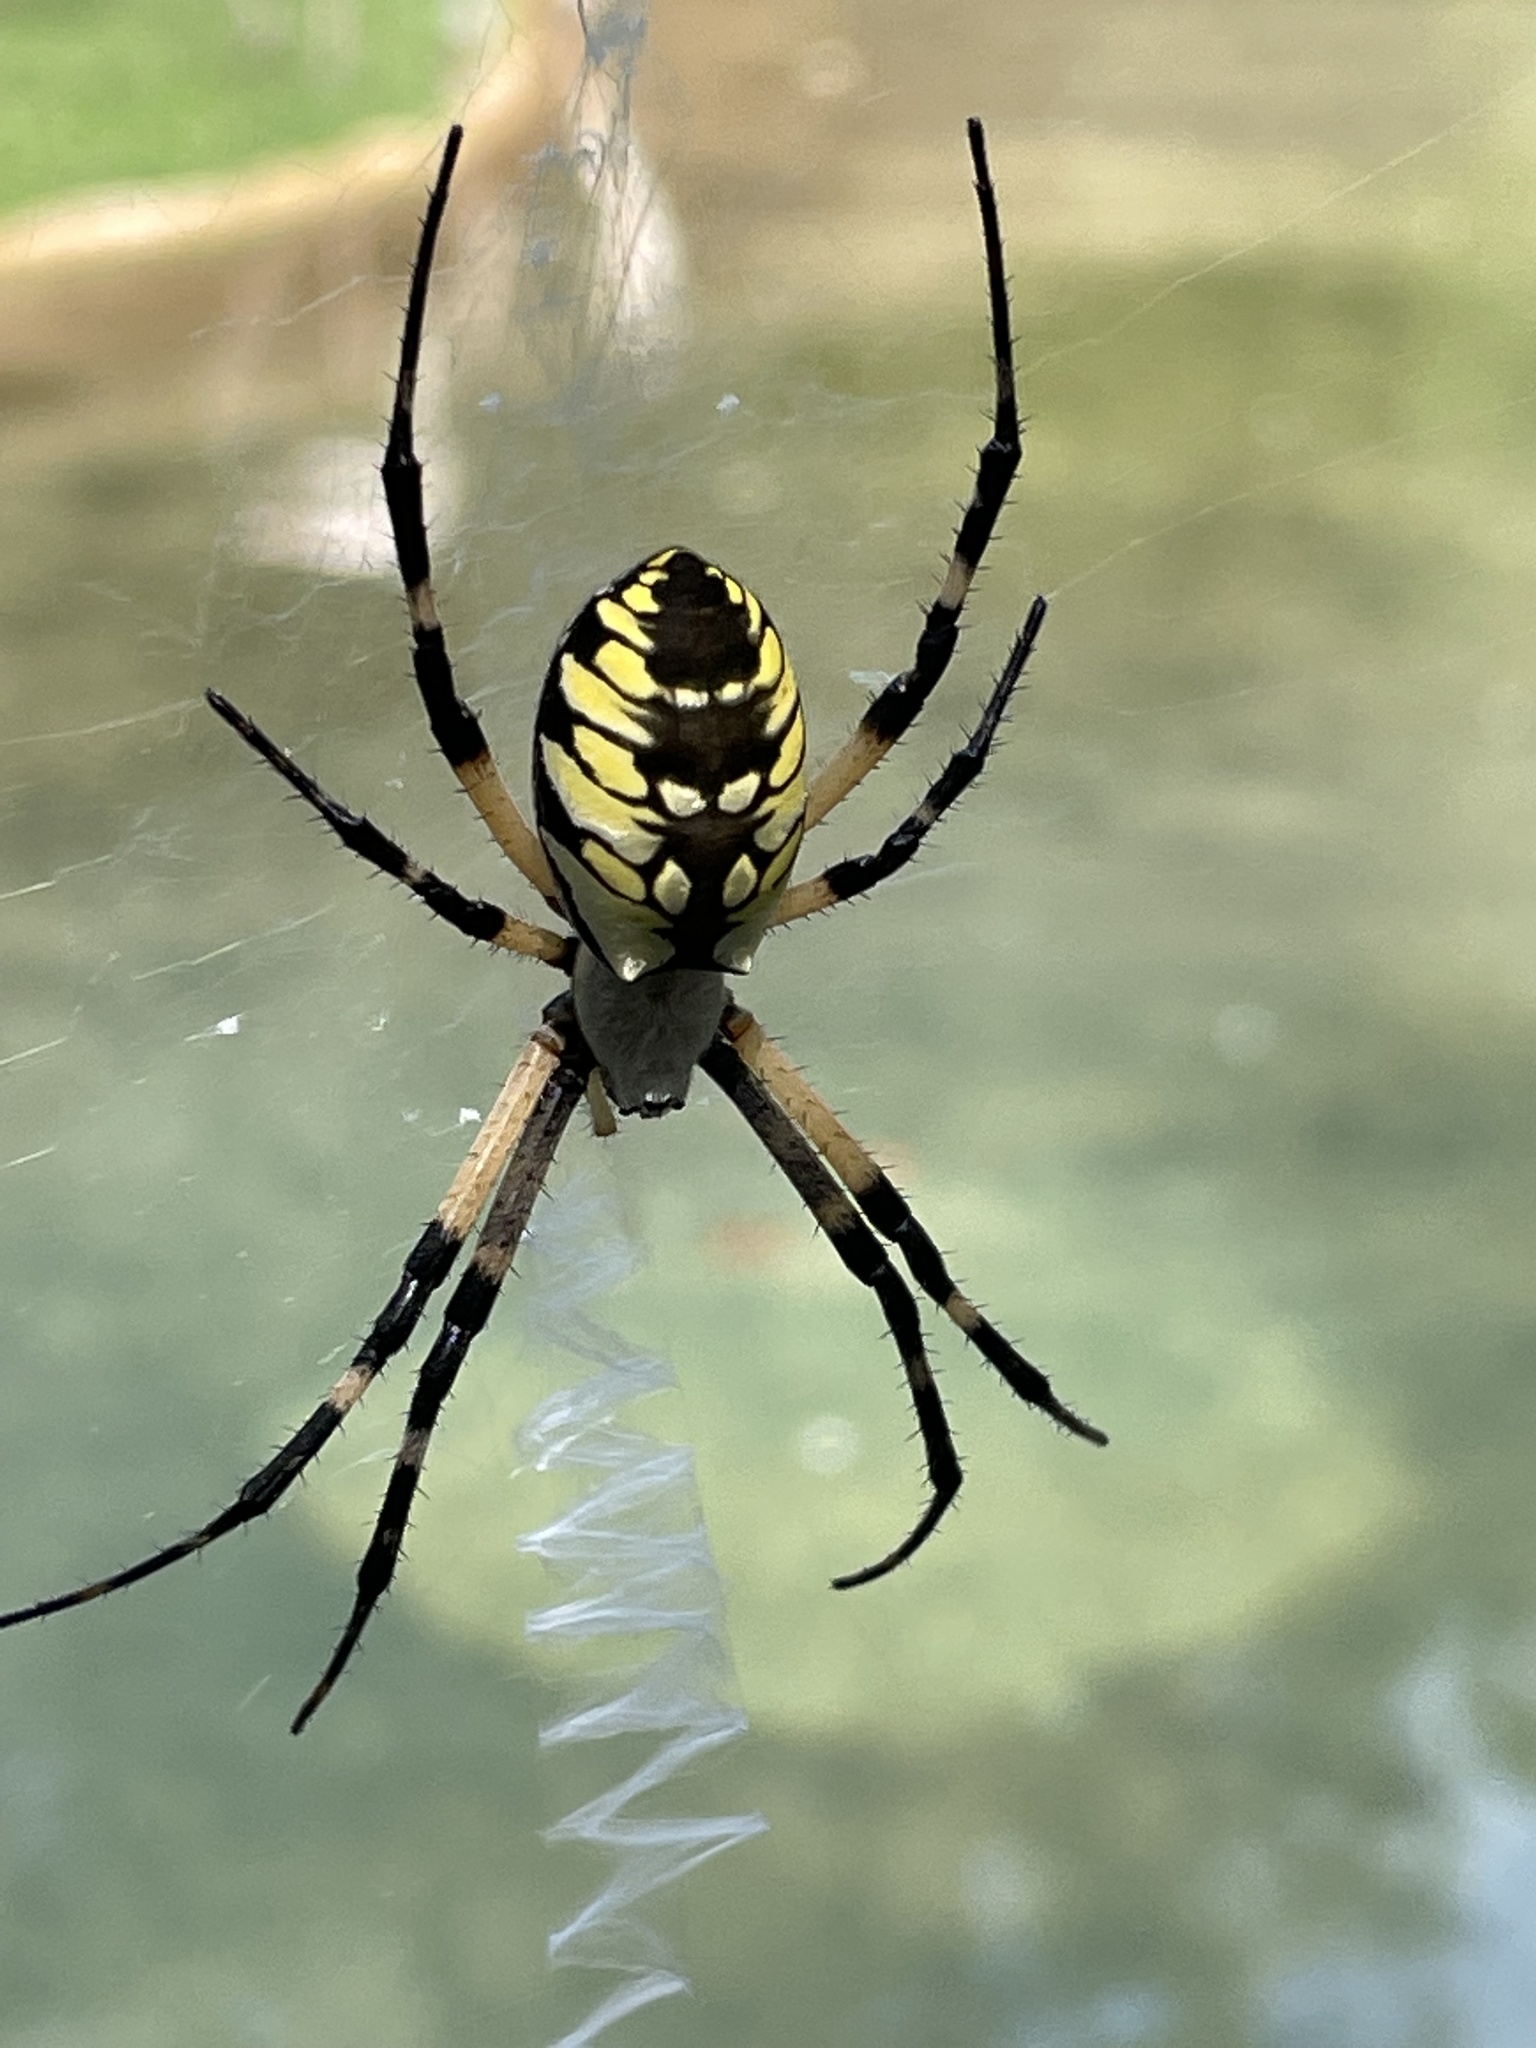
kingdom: Animalia
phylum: Arthropoda
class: Arachnida
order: Araneae
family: Araneidae
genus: Argiope
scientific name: Argiope aurantia
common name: Orb weavers
